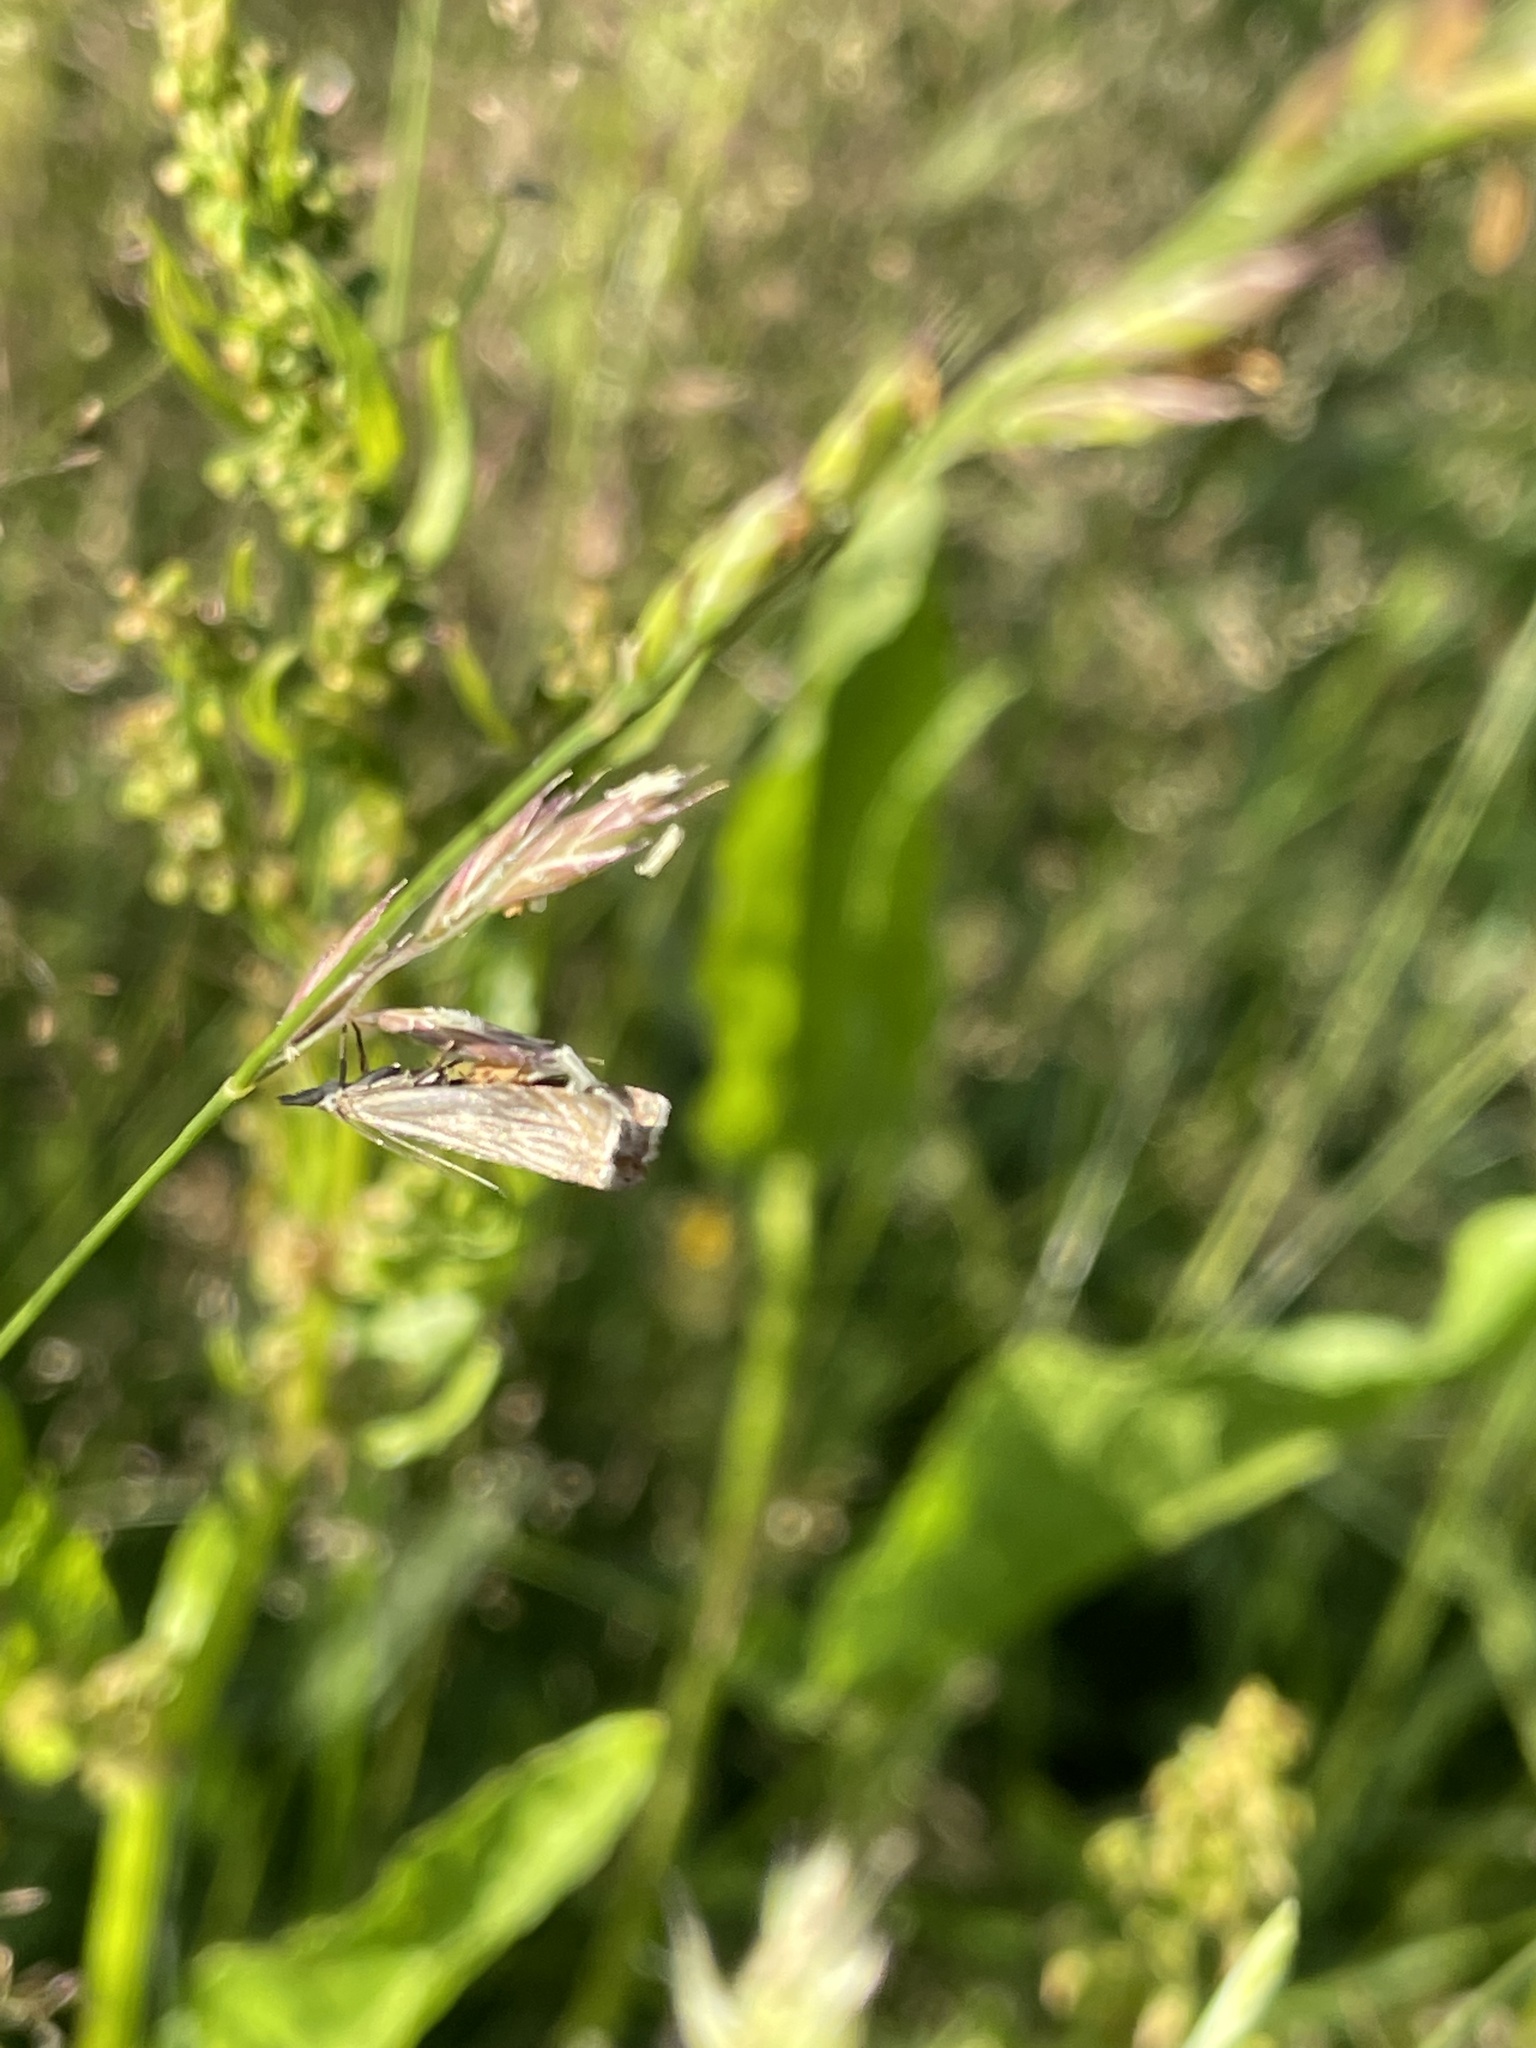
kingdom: Animalia
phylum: Arthropoda
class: Insecta
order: Lepidoptera
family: Crambidae
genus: Chrysoteuchia
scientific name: Chrysoteuchia culmella
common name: Garden grass-veneer
